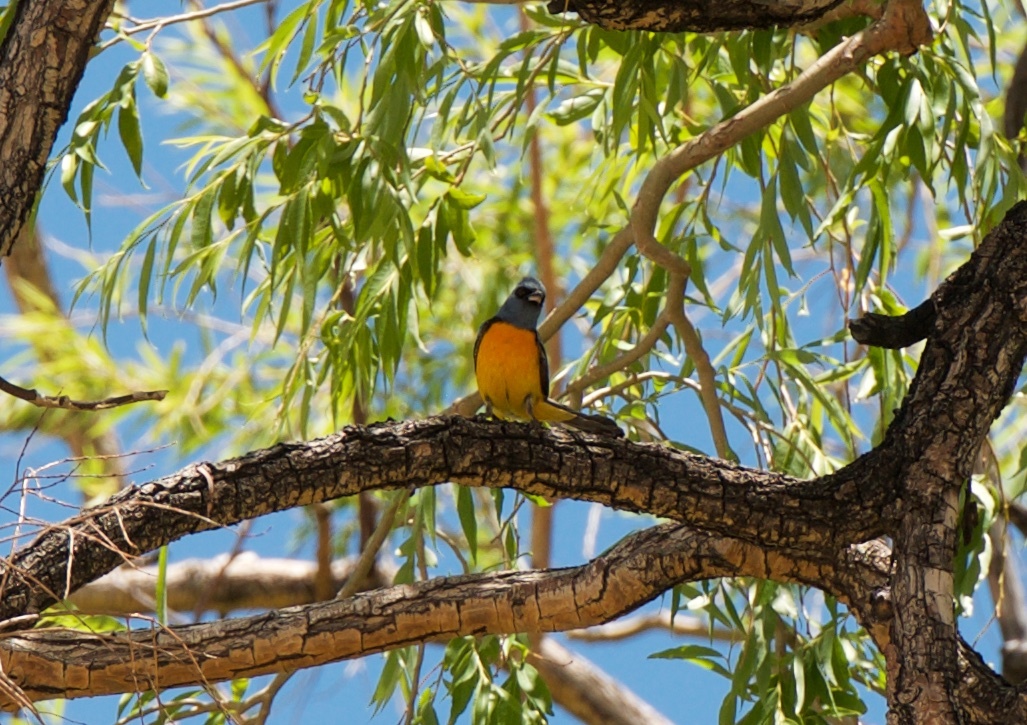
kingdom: Animalia
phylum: Chordata
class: Aves
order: Passeriformes
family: Thraupidae
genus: Rauenia
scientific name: Rauenia bonariensis
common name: Blue-and-yellow tanager
